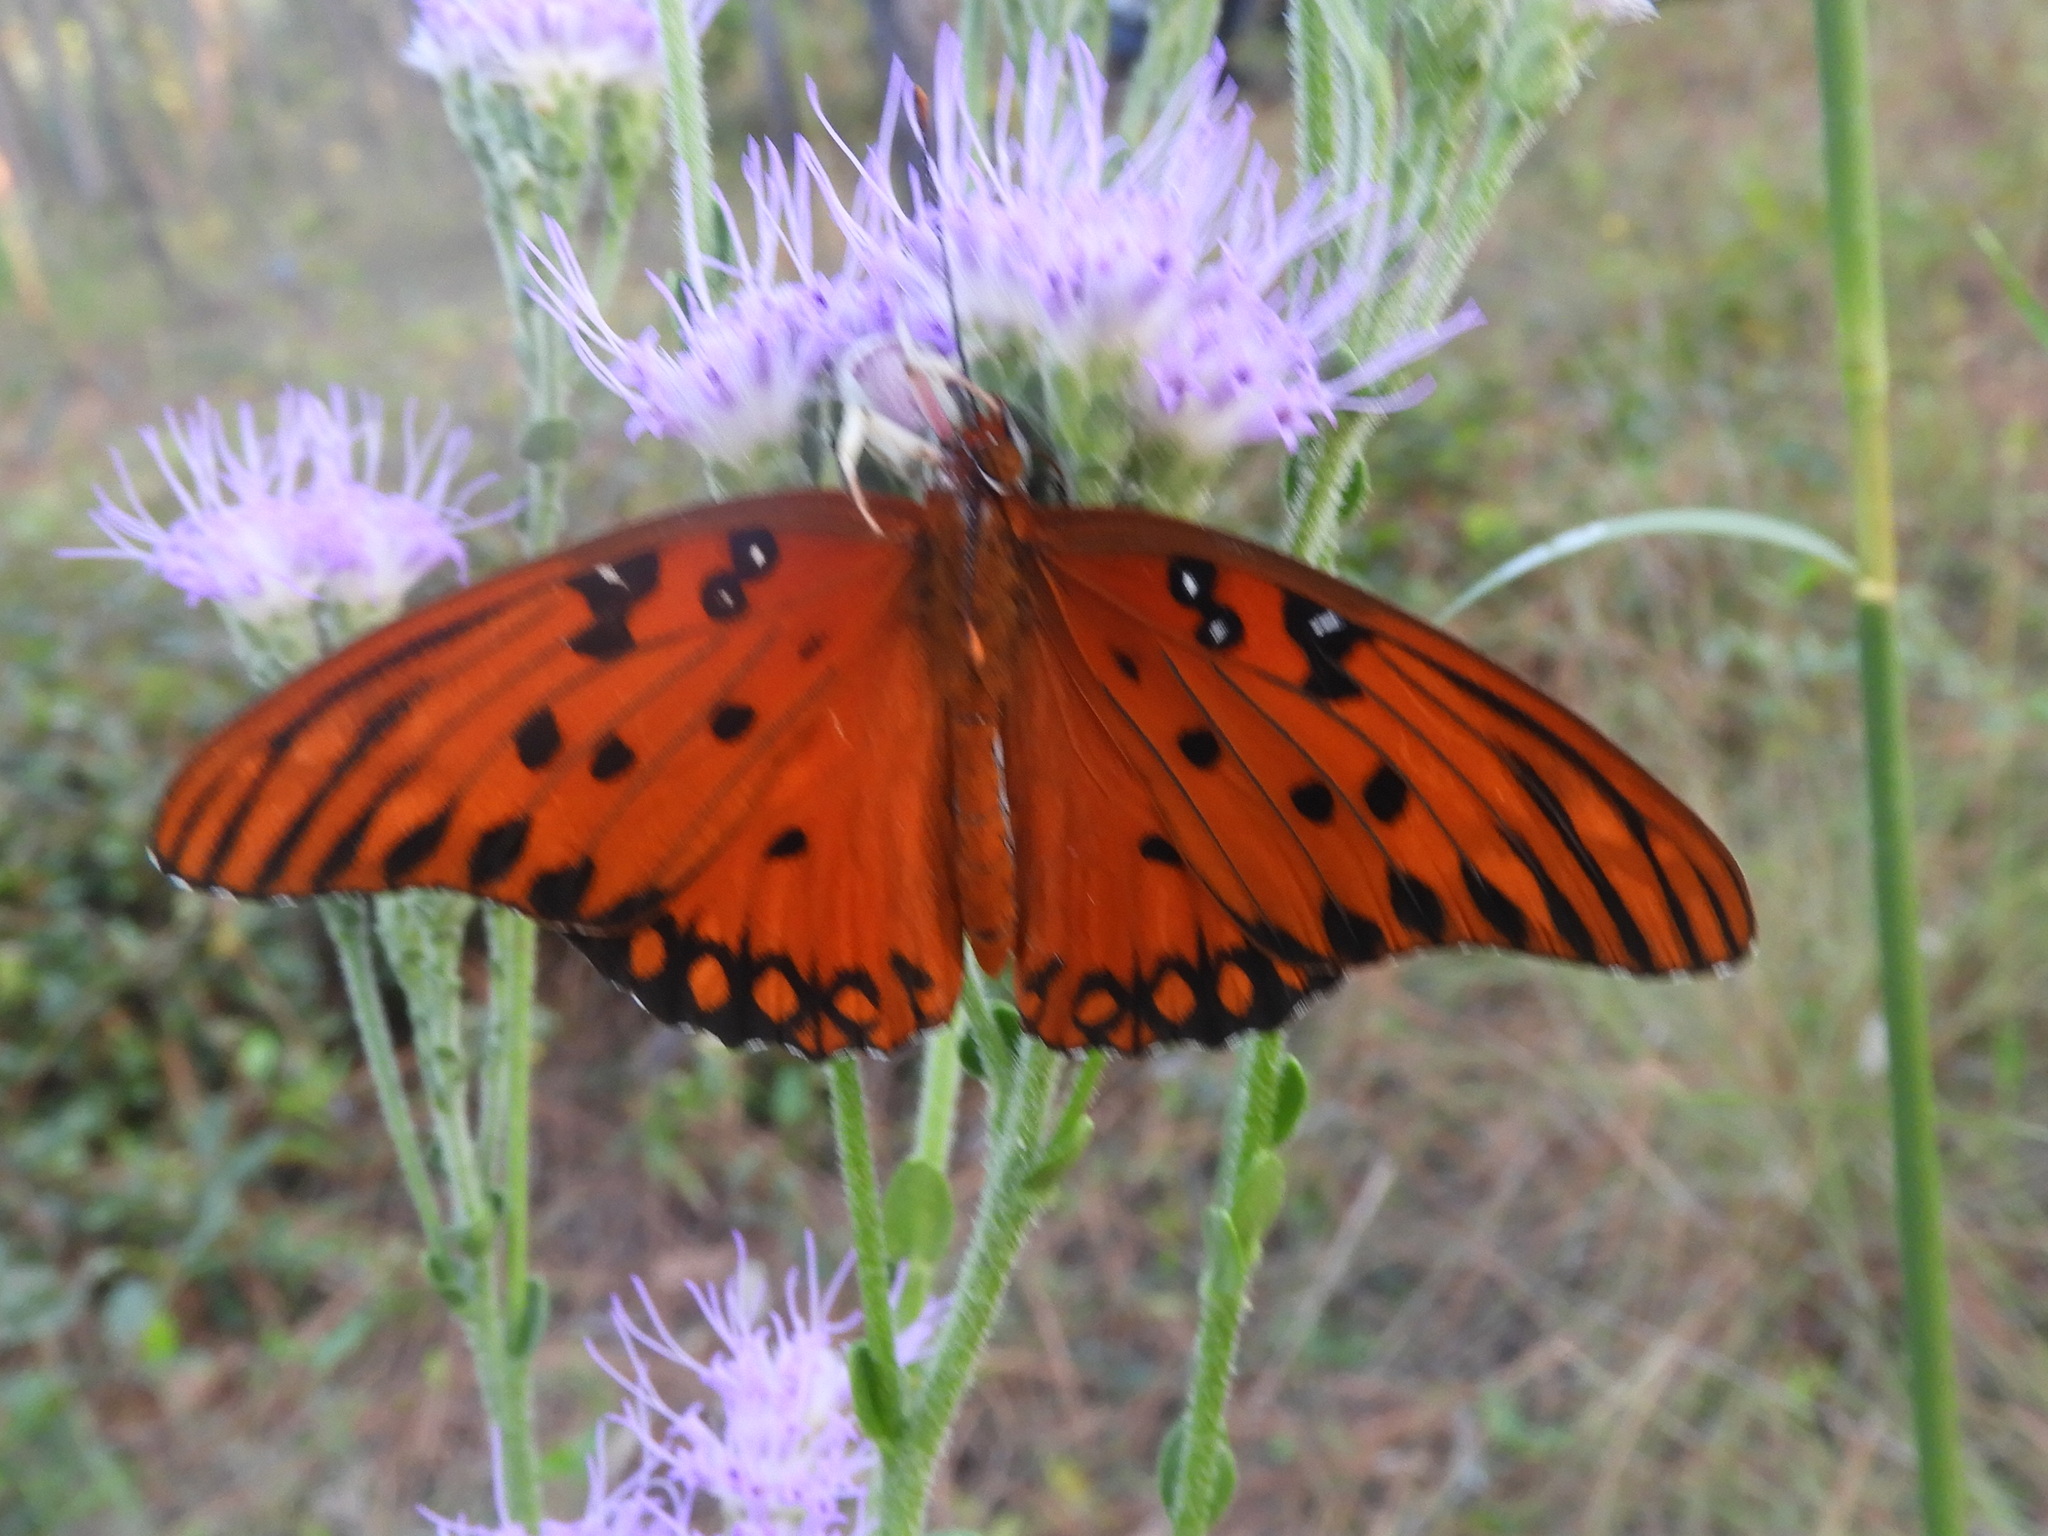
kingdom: Animalia
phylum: Arthropoda
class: Insecta
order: Lepidoptera
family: Nymphalidae
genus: Dione
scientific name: Dione vanillae
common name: Gulf fritillary
